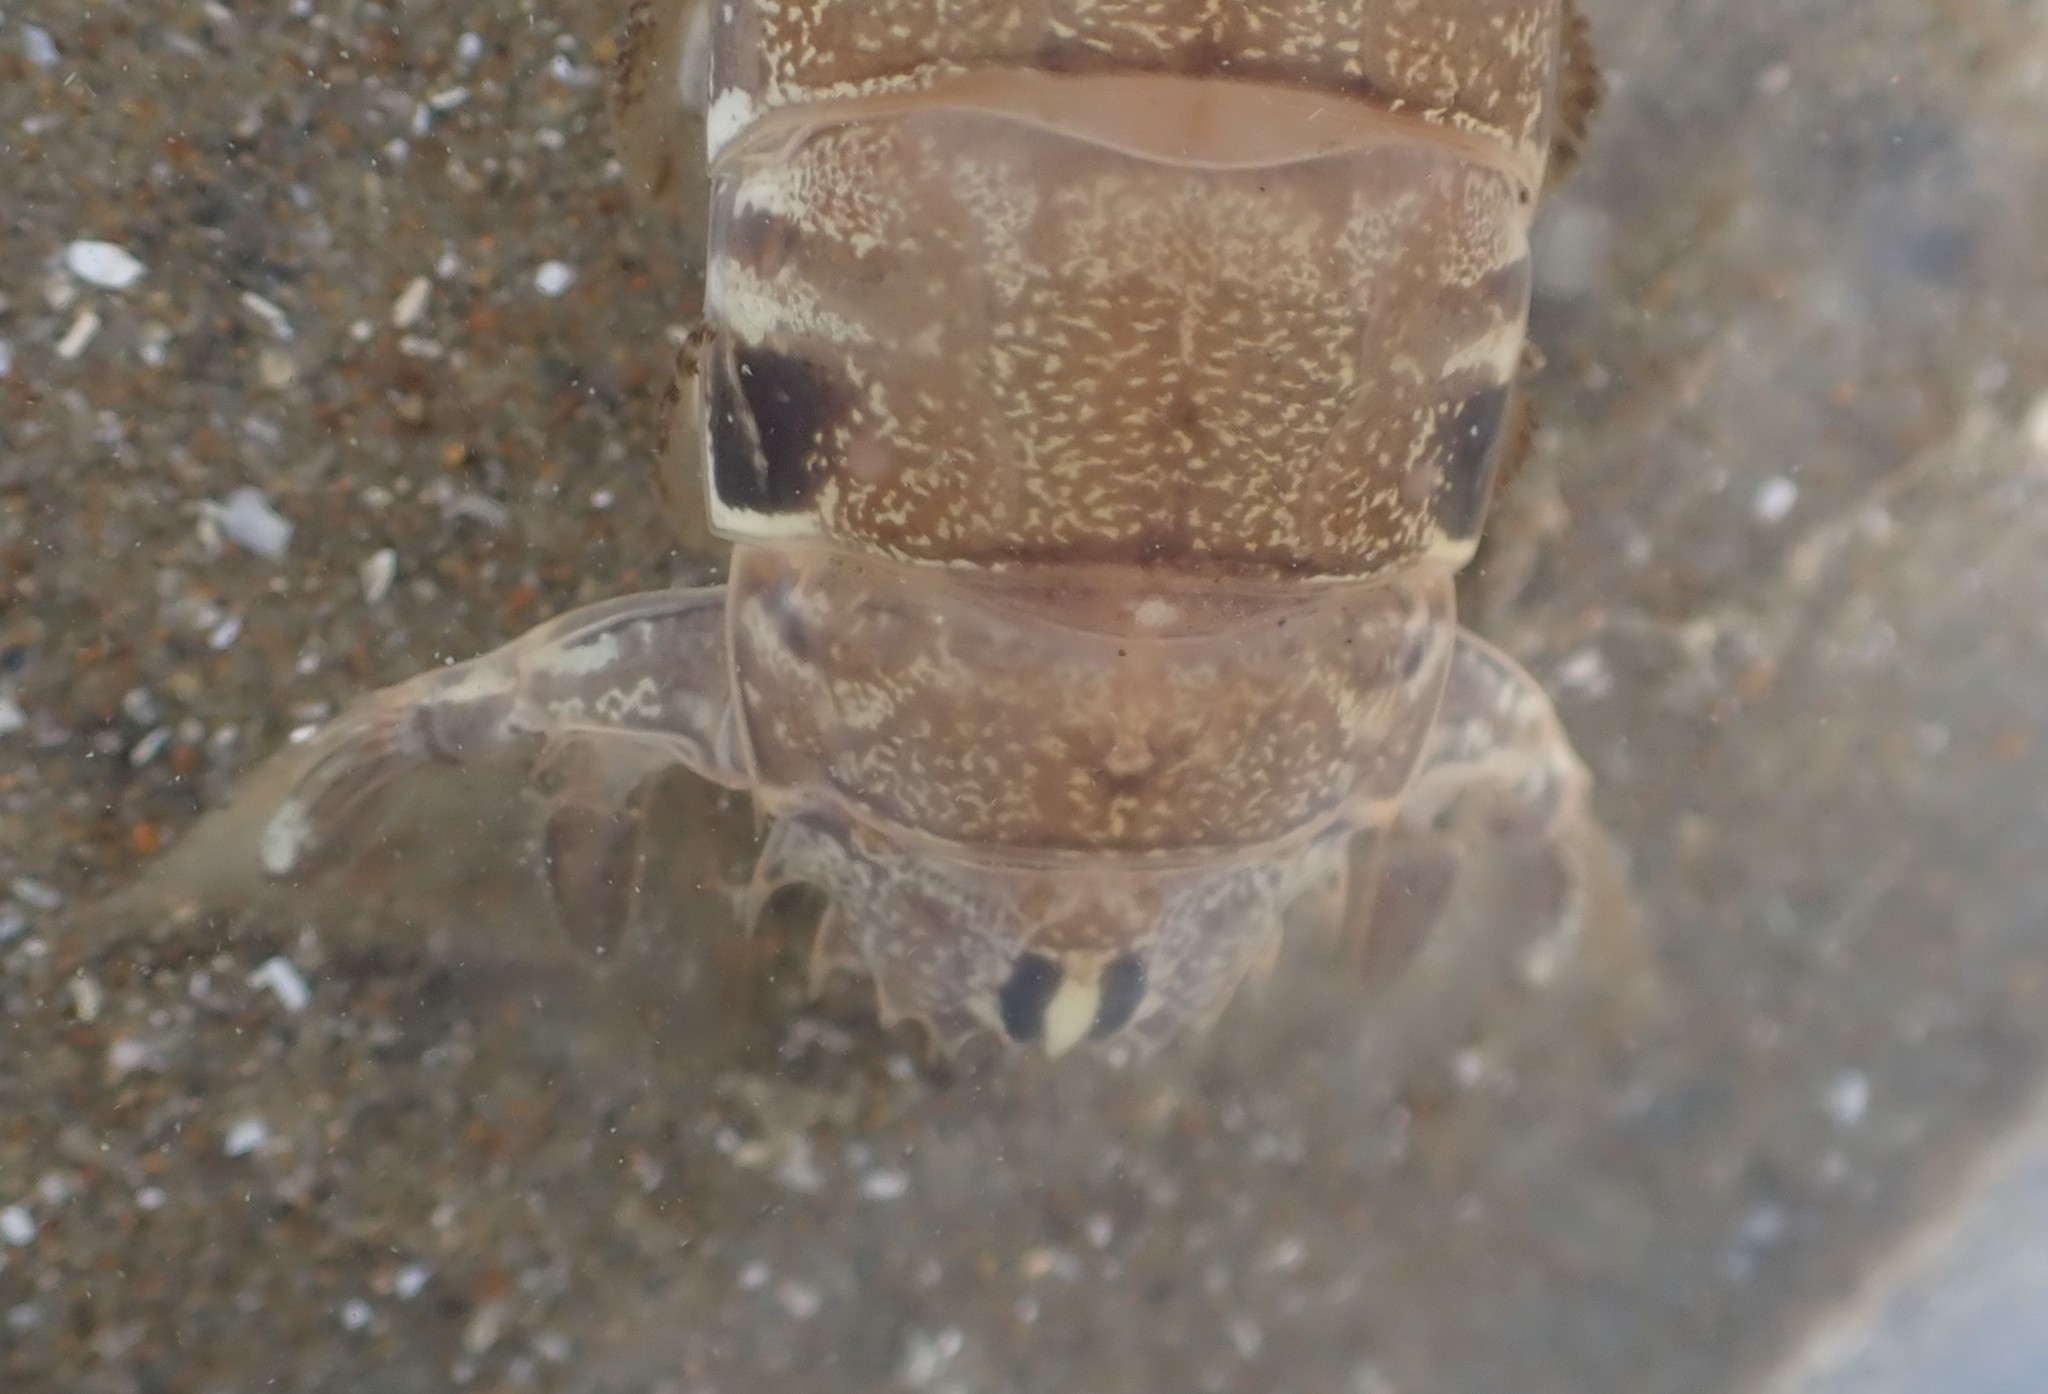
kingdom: Animalia
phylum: Arthropoda
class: Malacostraca
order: Stomatopoda
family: Tetrasquillidae
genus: Pariliacantha
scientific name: Pariliacantha georgeorum
